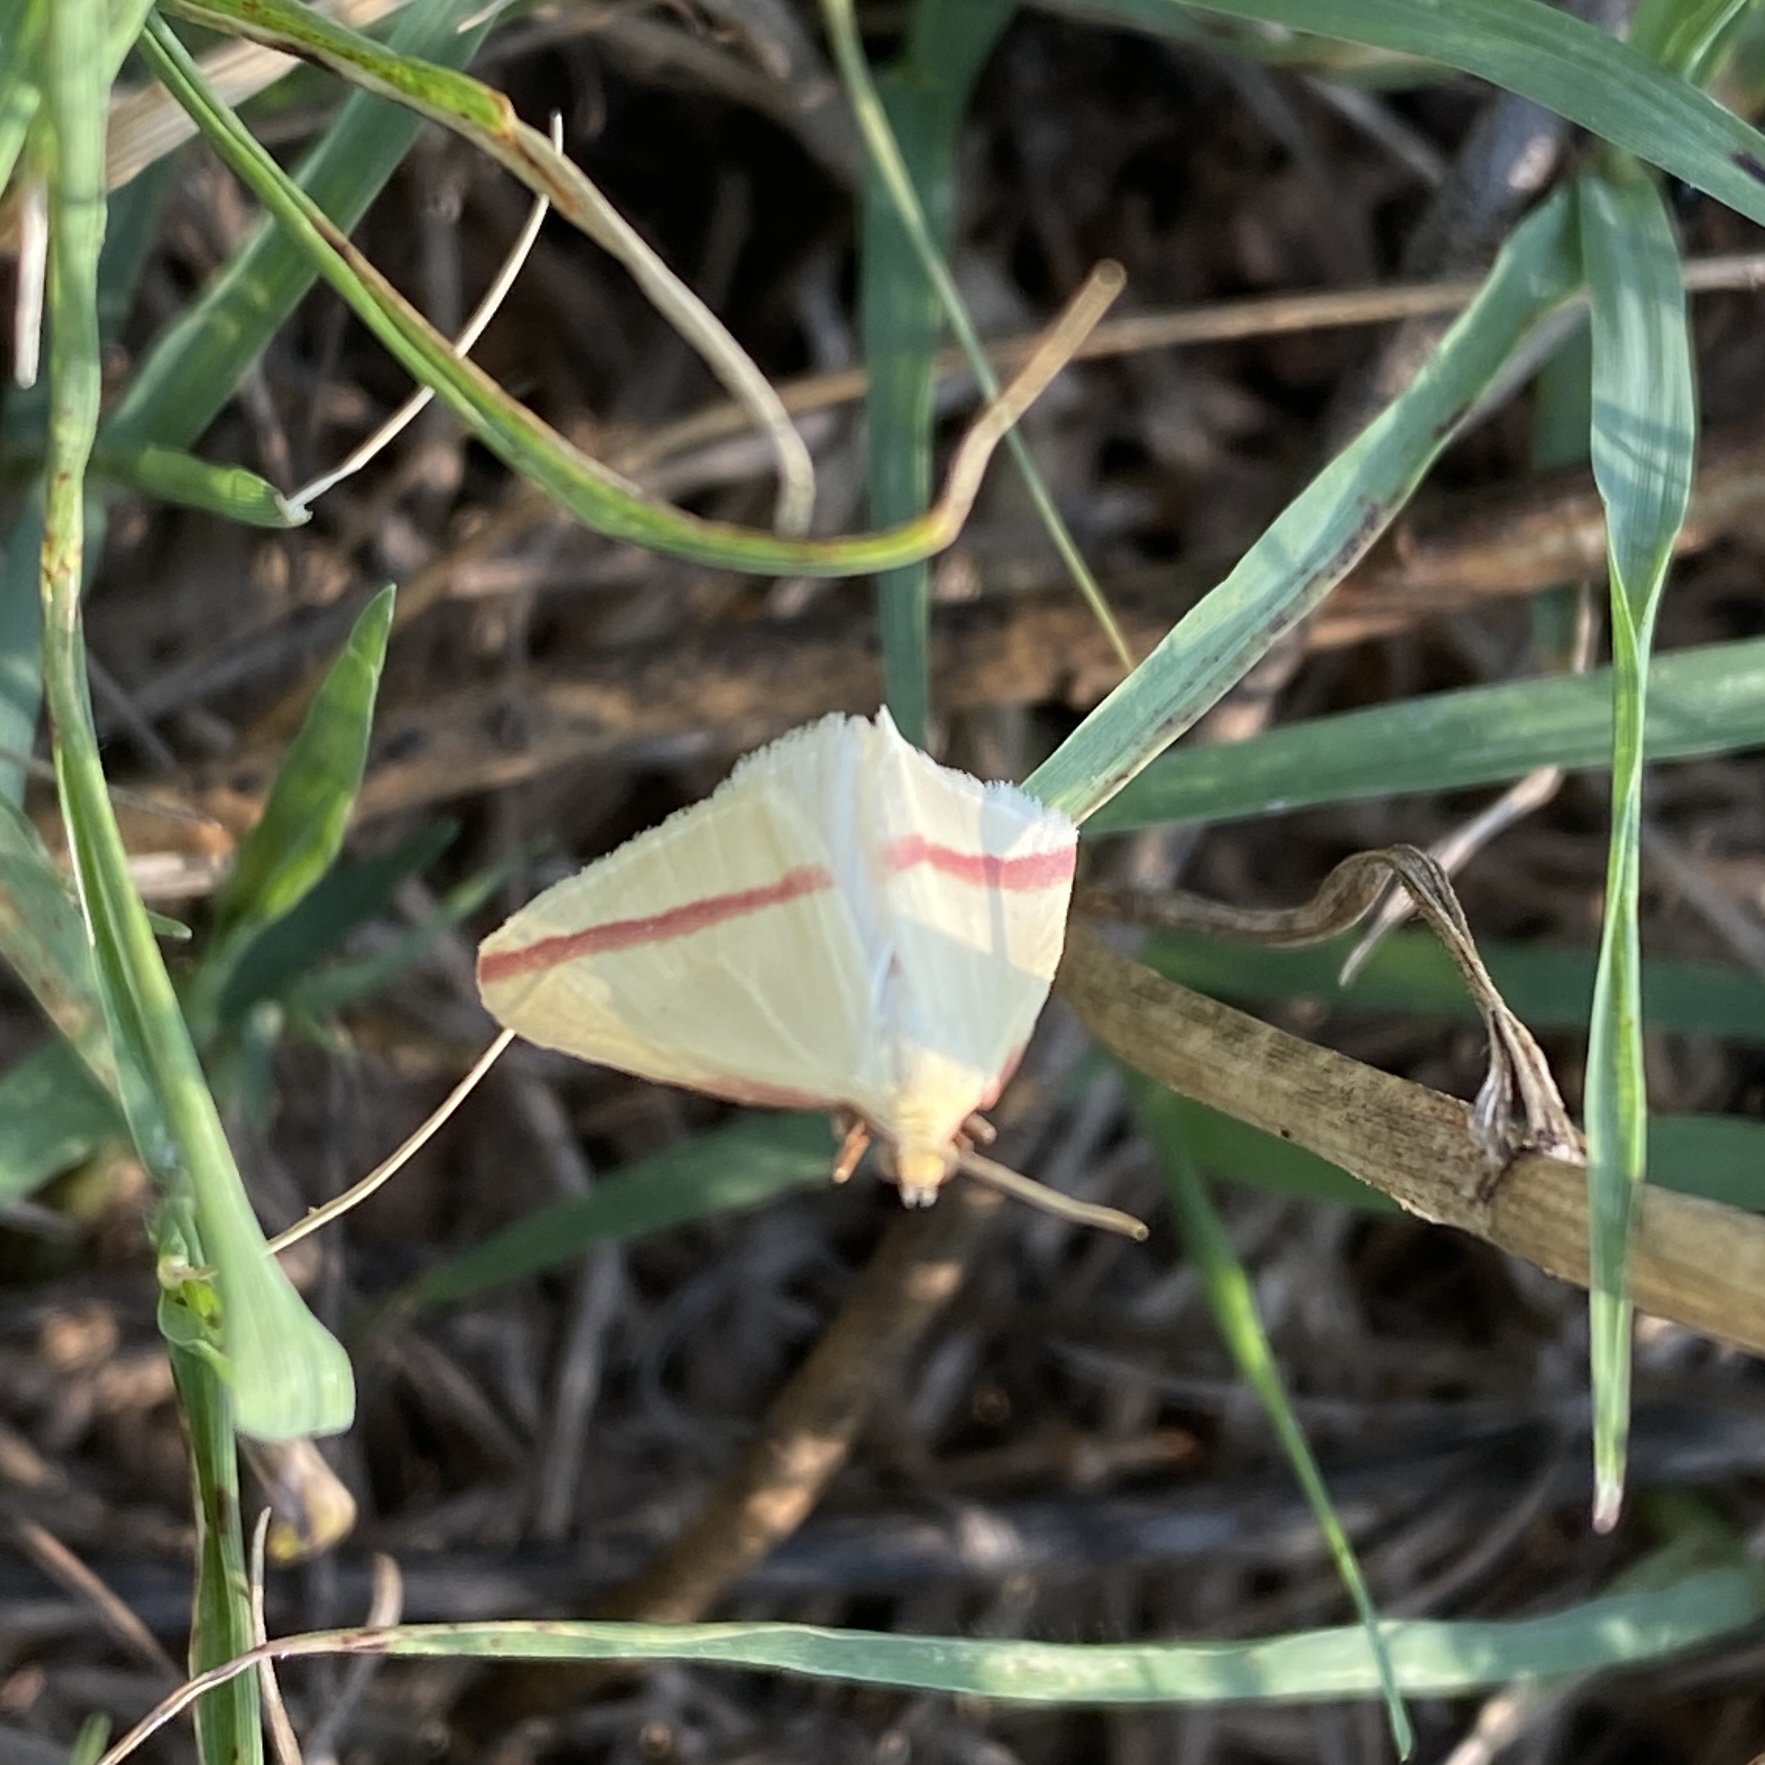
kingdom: Animalia
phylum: Arthropoda
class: Insecta
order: Lepidoptera
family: Geometridae
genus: Rhodometra
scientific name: Rhodometra sacraria
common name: Vestal
